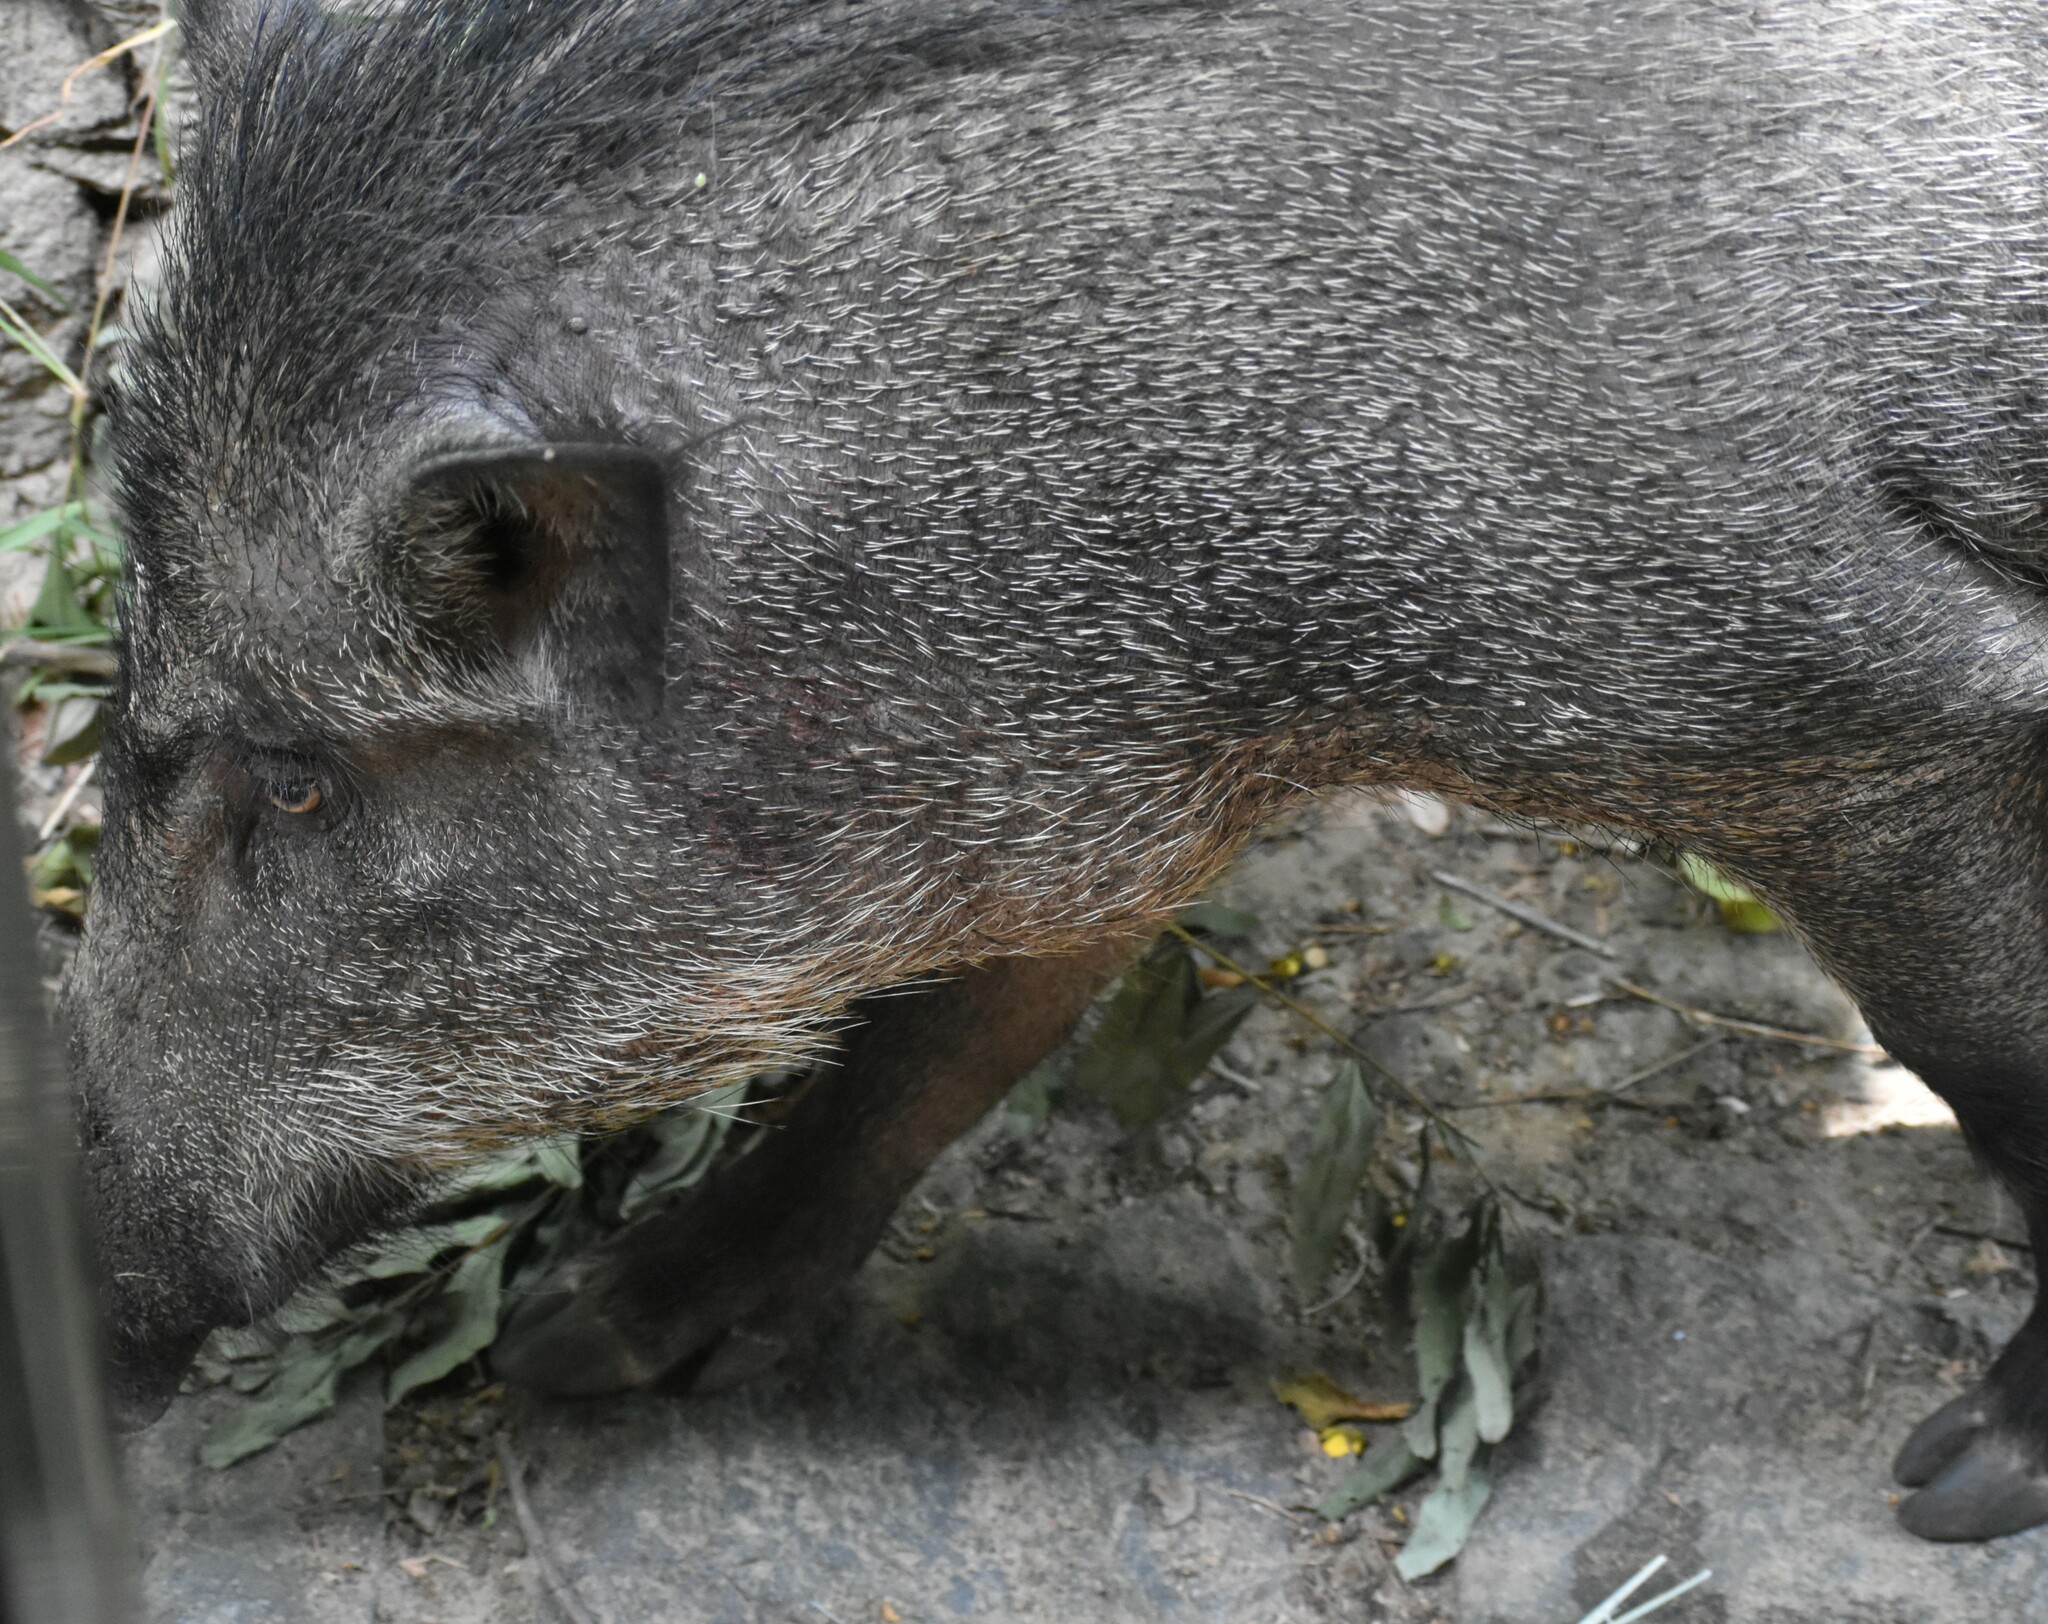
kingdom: Animalia
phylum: Chordata
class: Mammalia
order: Artiodactyla
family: Suidae
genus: Sus
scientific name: Sus scrofa
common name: Wild boar
